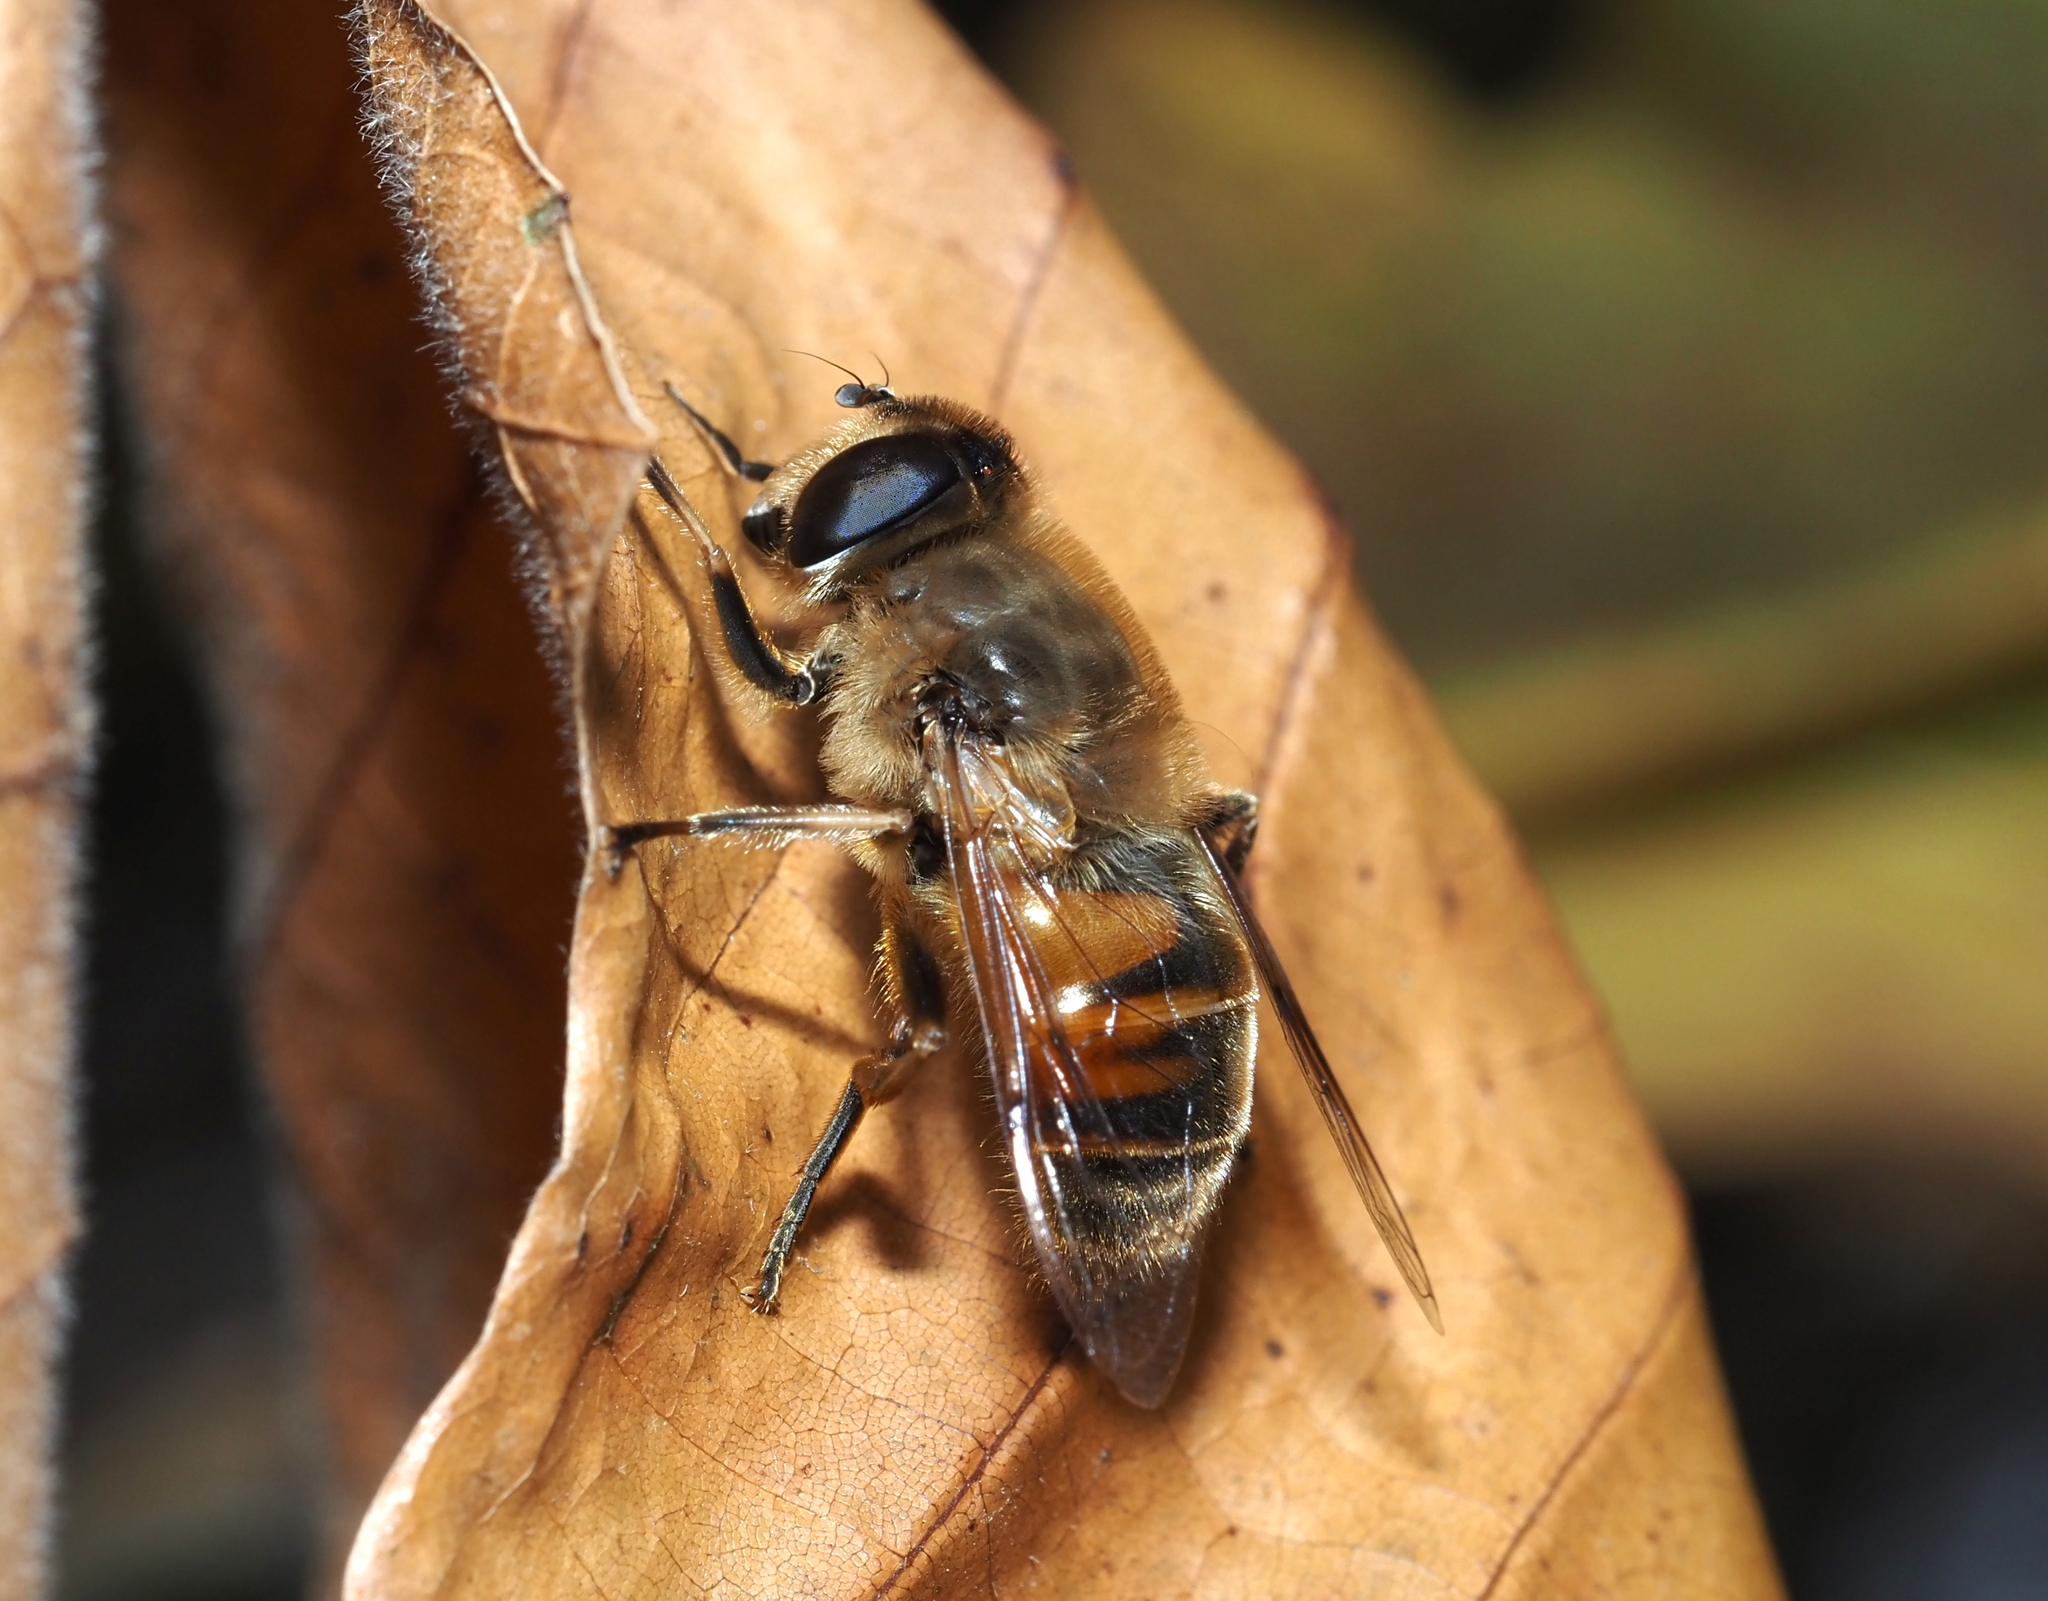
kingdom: Animalia
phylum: Arthropoda
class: Insecta
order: Diptera
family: Syrphidae
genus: Eristalis
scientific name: Eristalis tenax
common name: Drone fly
